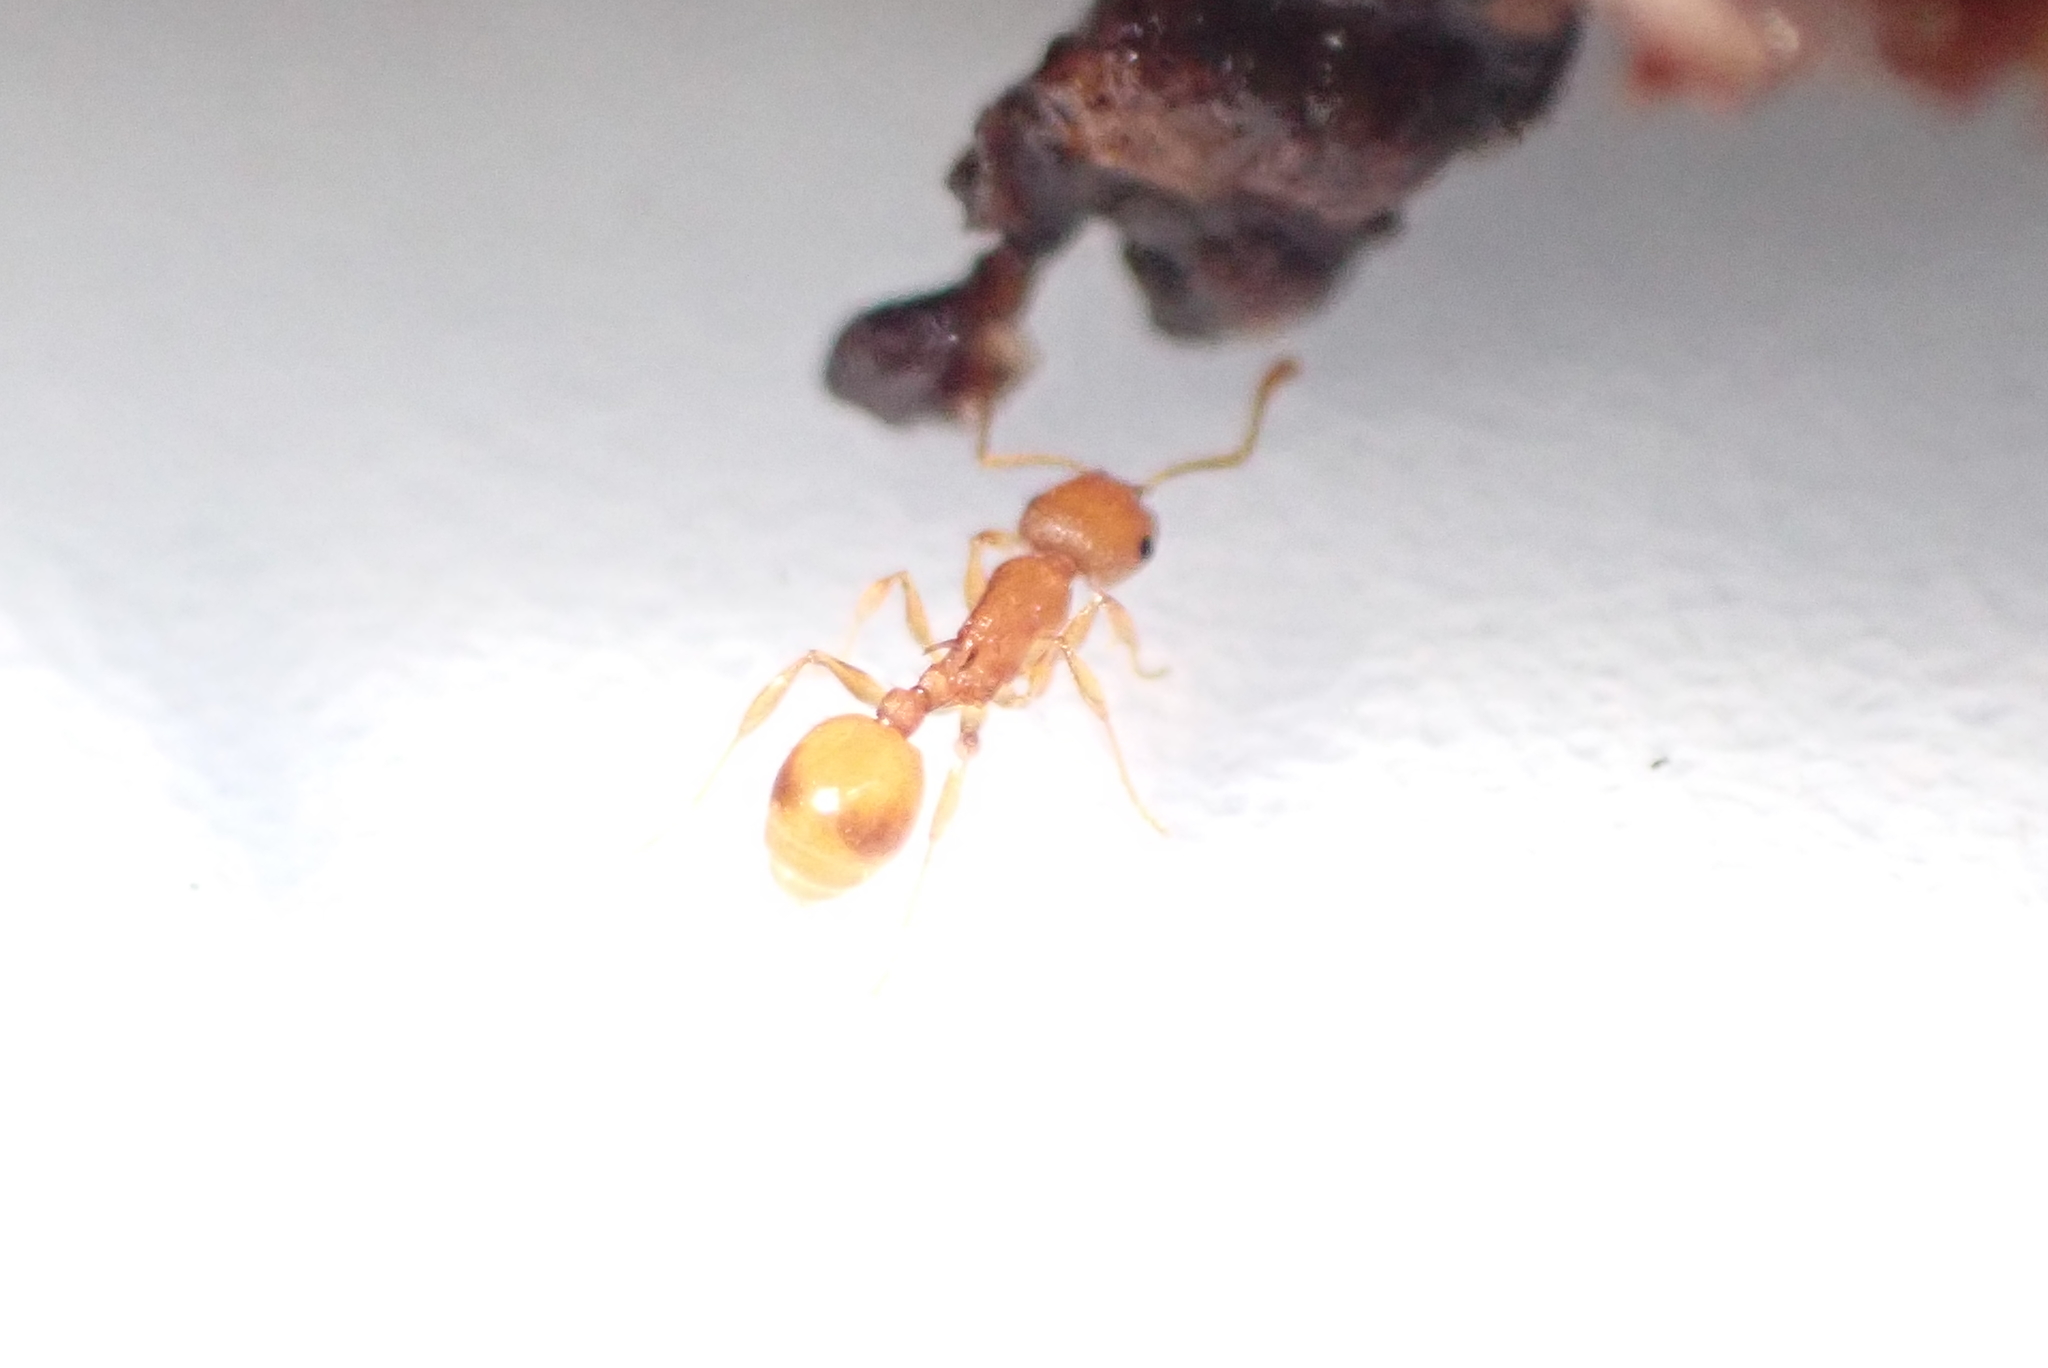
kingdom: Animalia
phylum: Arthropoda
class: Insecta
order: Hymenoptera
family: Formicidae
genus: Temnothorax
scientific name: Temnothorax curvispinosus
